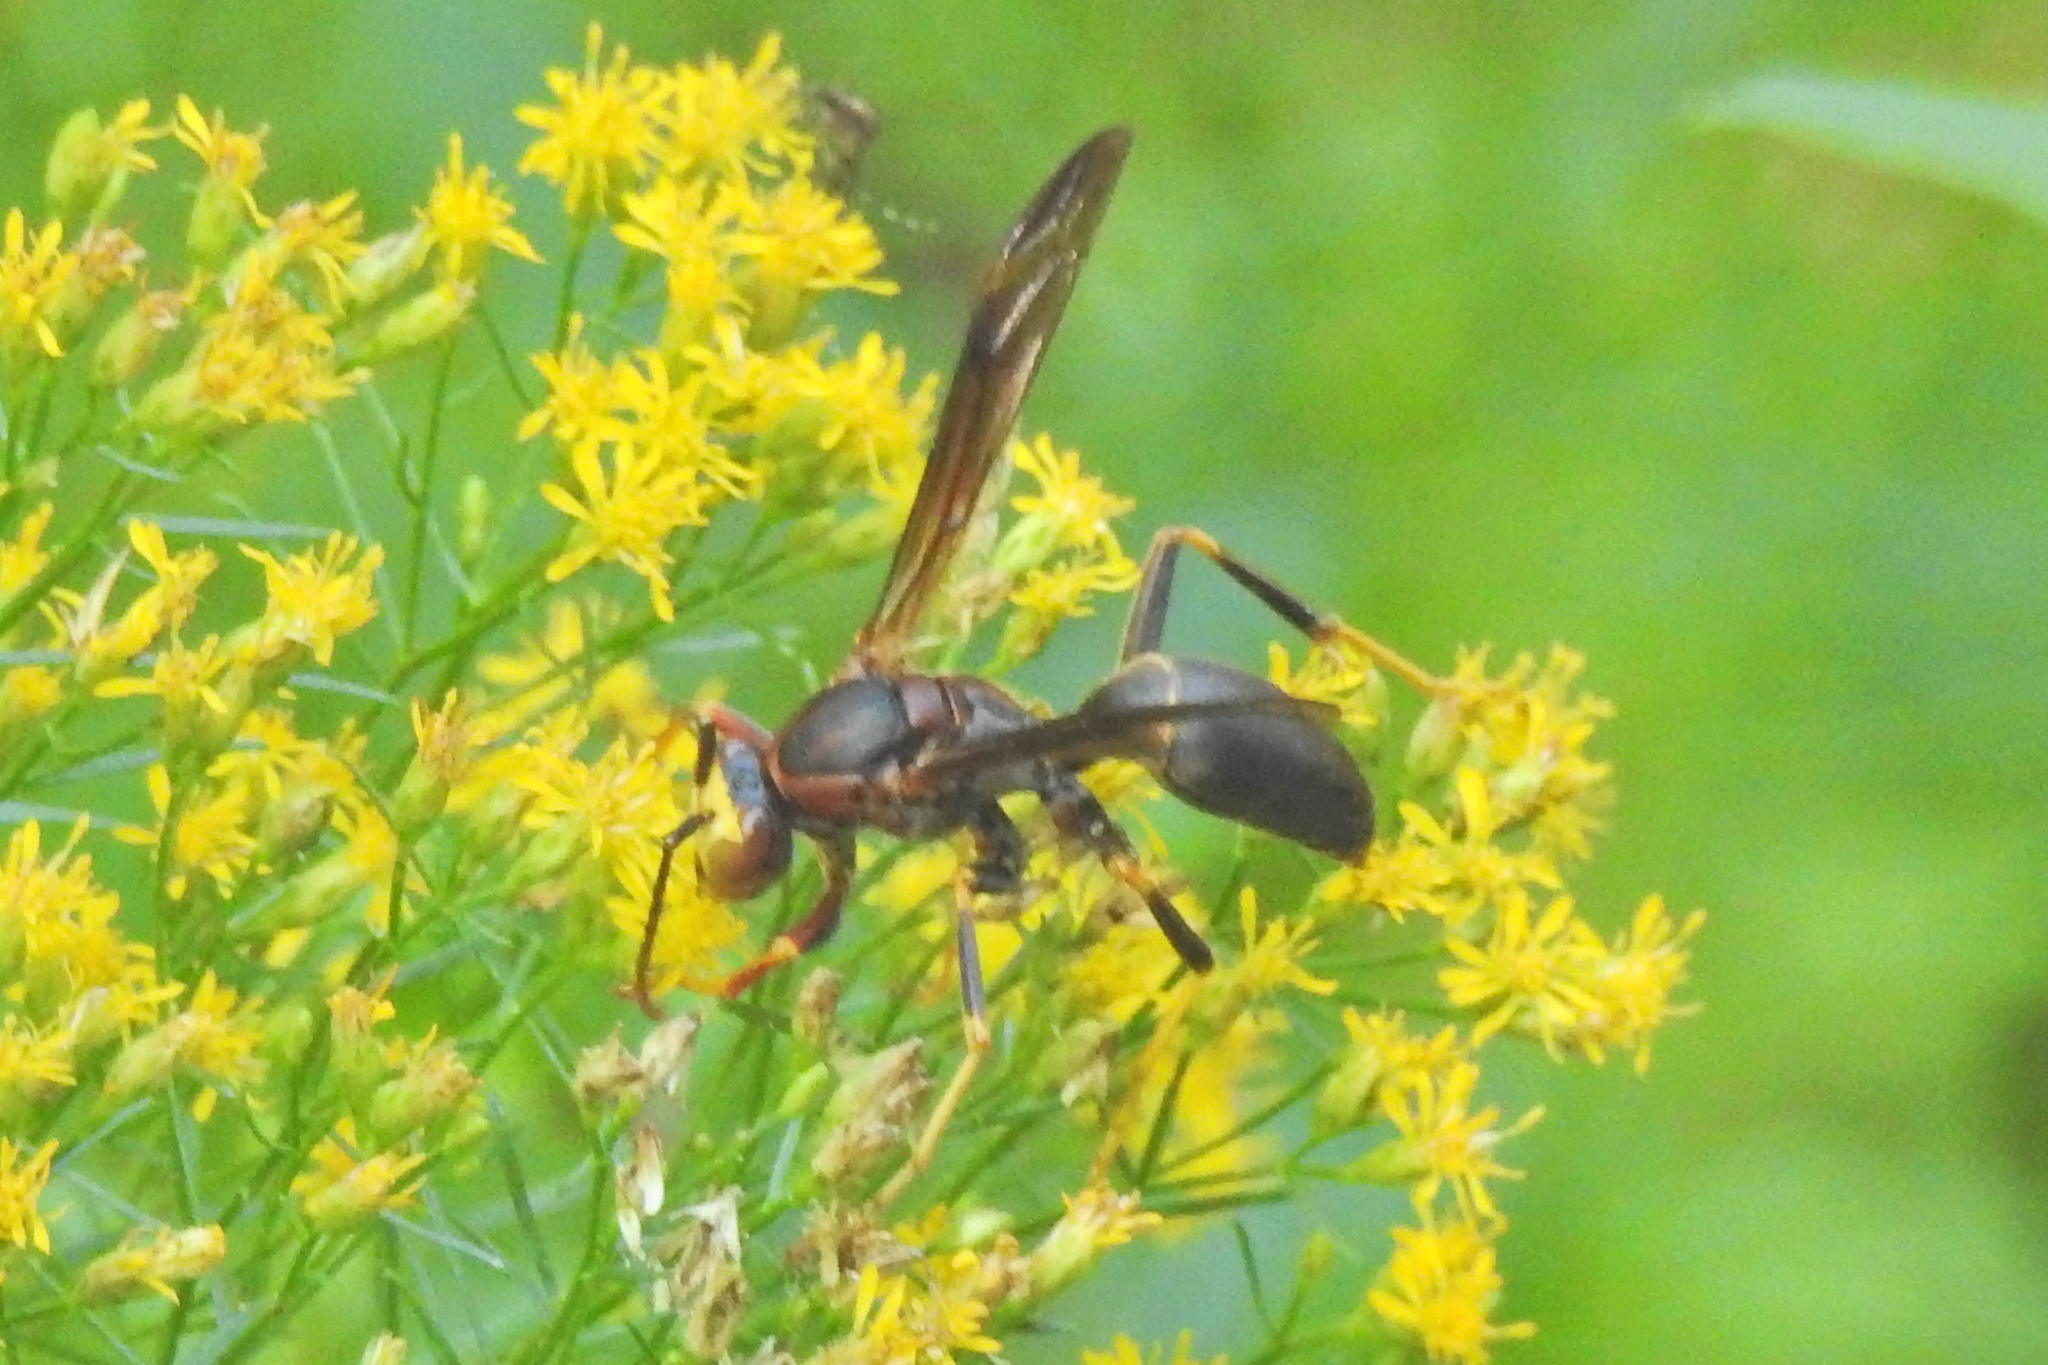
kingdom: Animalia
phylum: Arthropoda
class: Insecta
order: Hymenoptera
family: Eumenidae
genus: Polistes
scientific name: Polistes metricus
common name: Metric paper wasp
